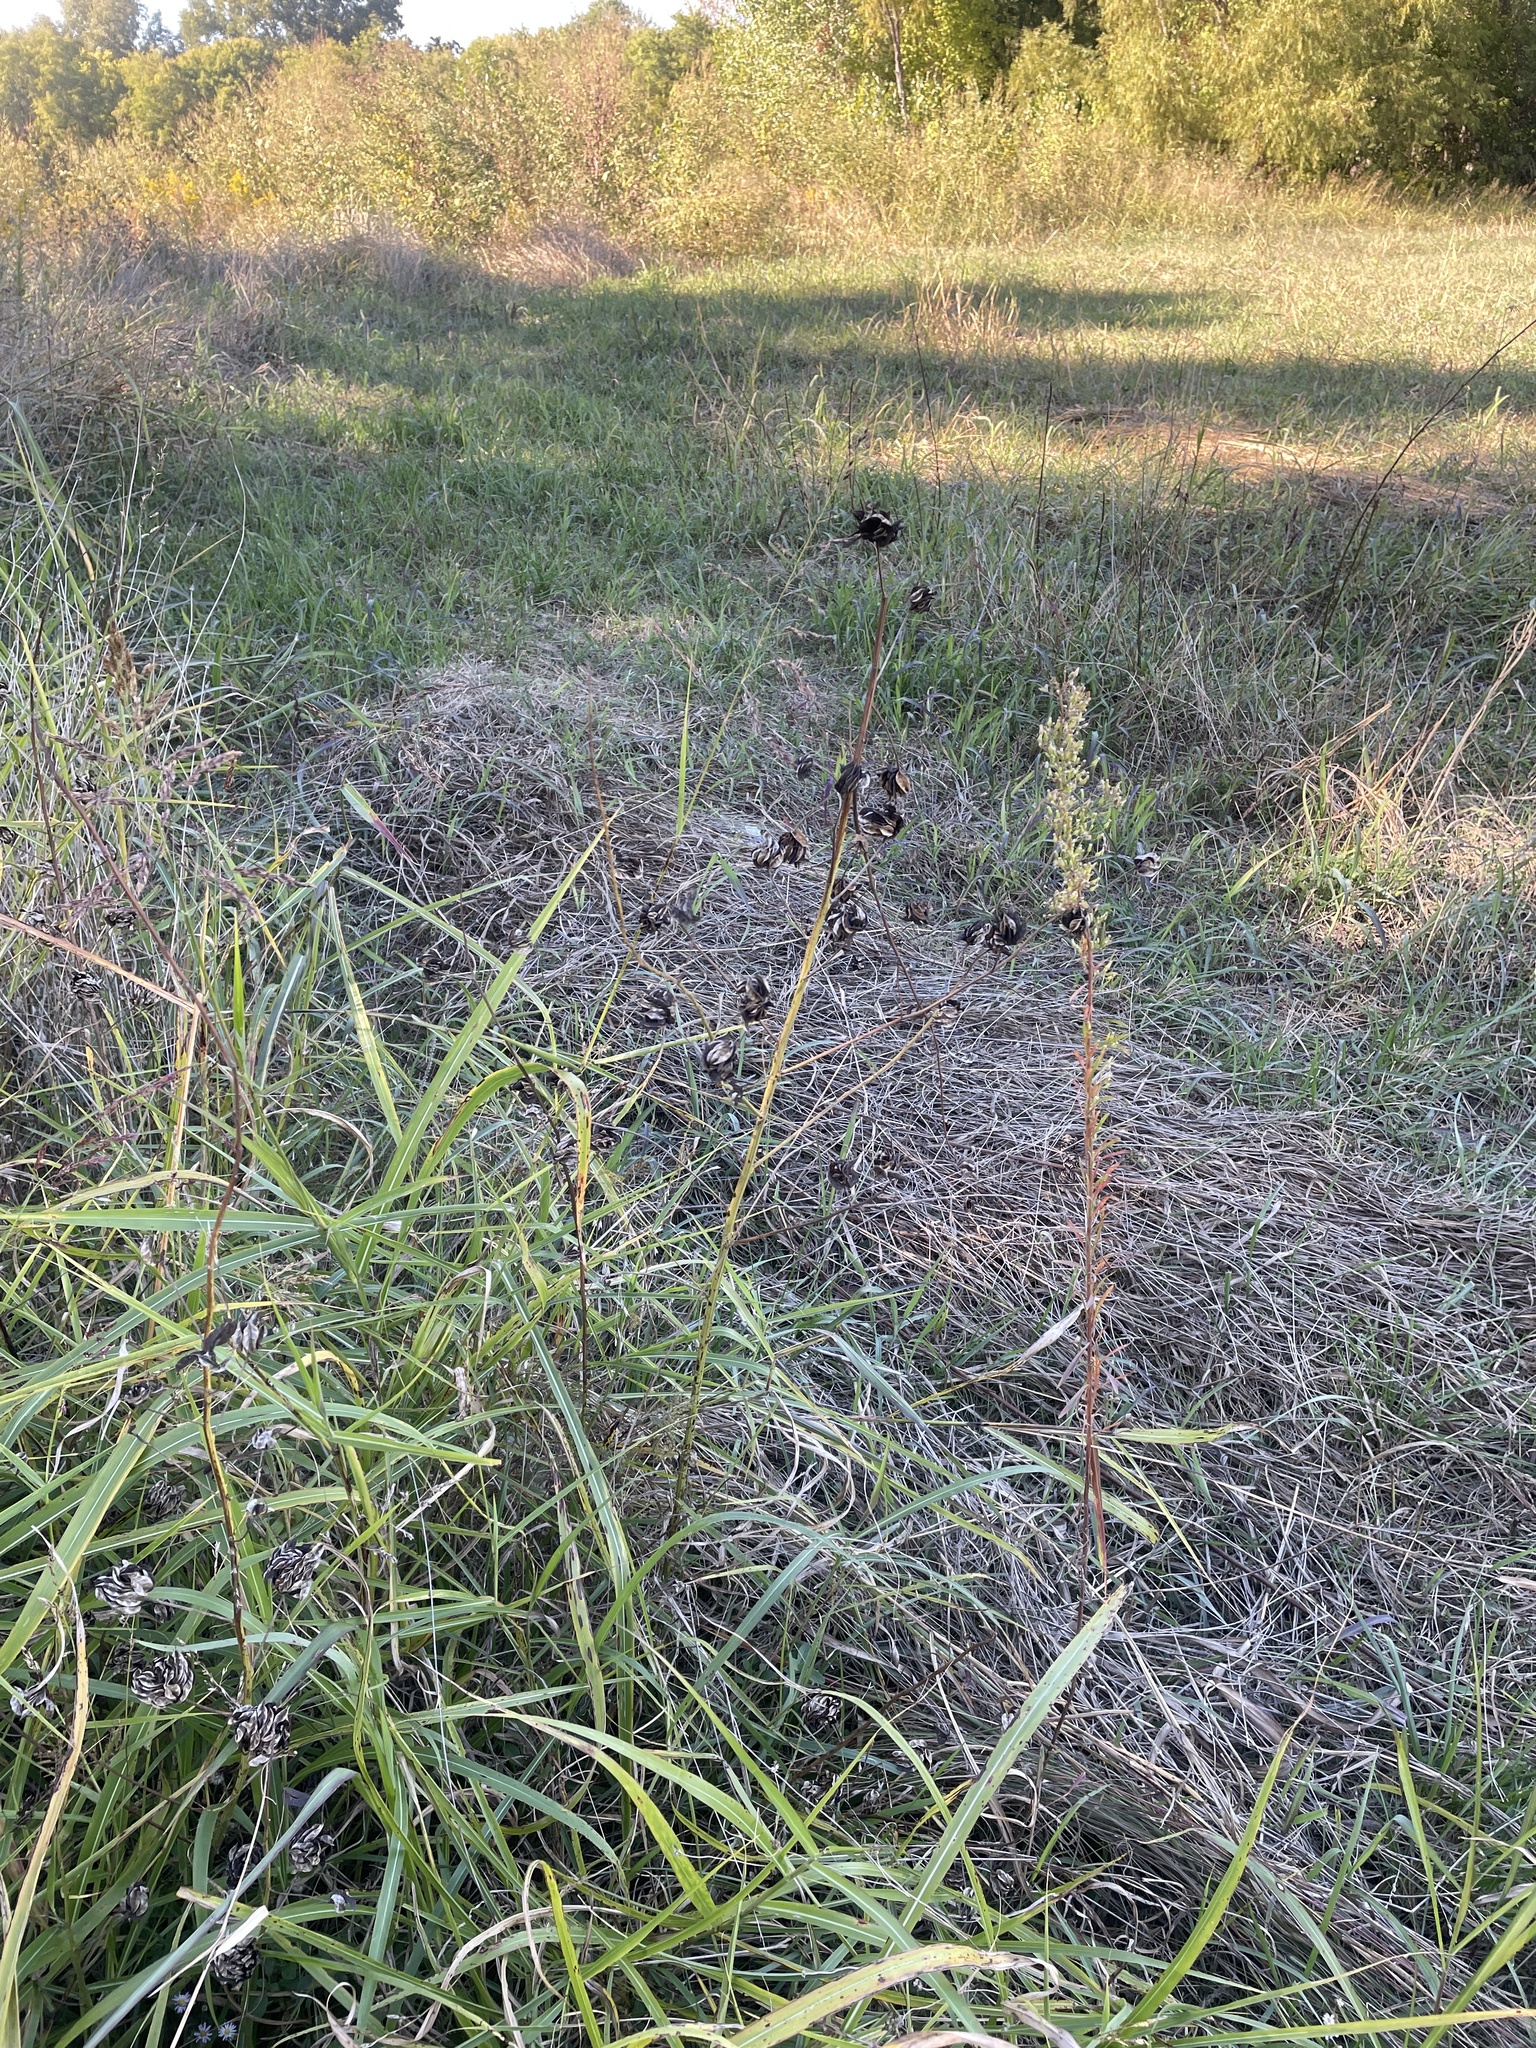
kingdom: Plantae
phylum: Tracheophyta
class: Magnoliopsida
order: Fabales
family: Fabaceae
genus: Desmanthus
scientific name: Desmanthus illinoensis
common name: Illinois bundle-flower
